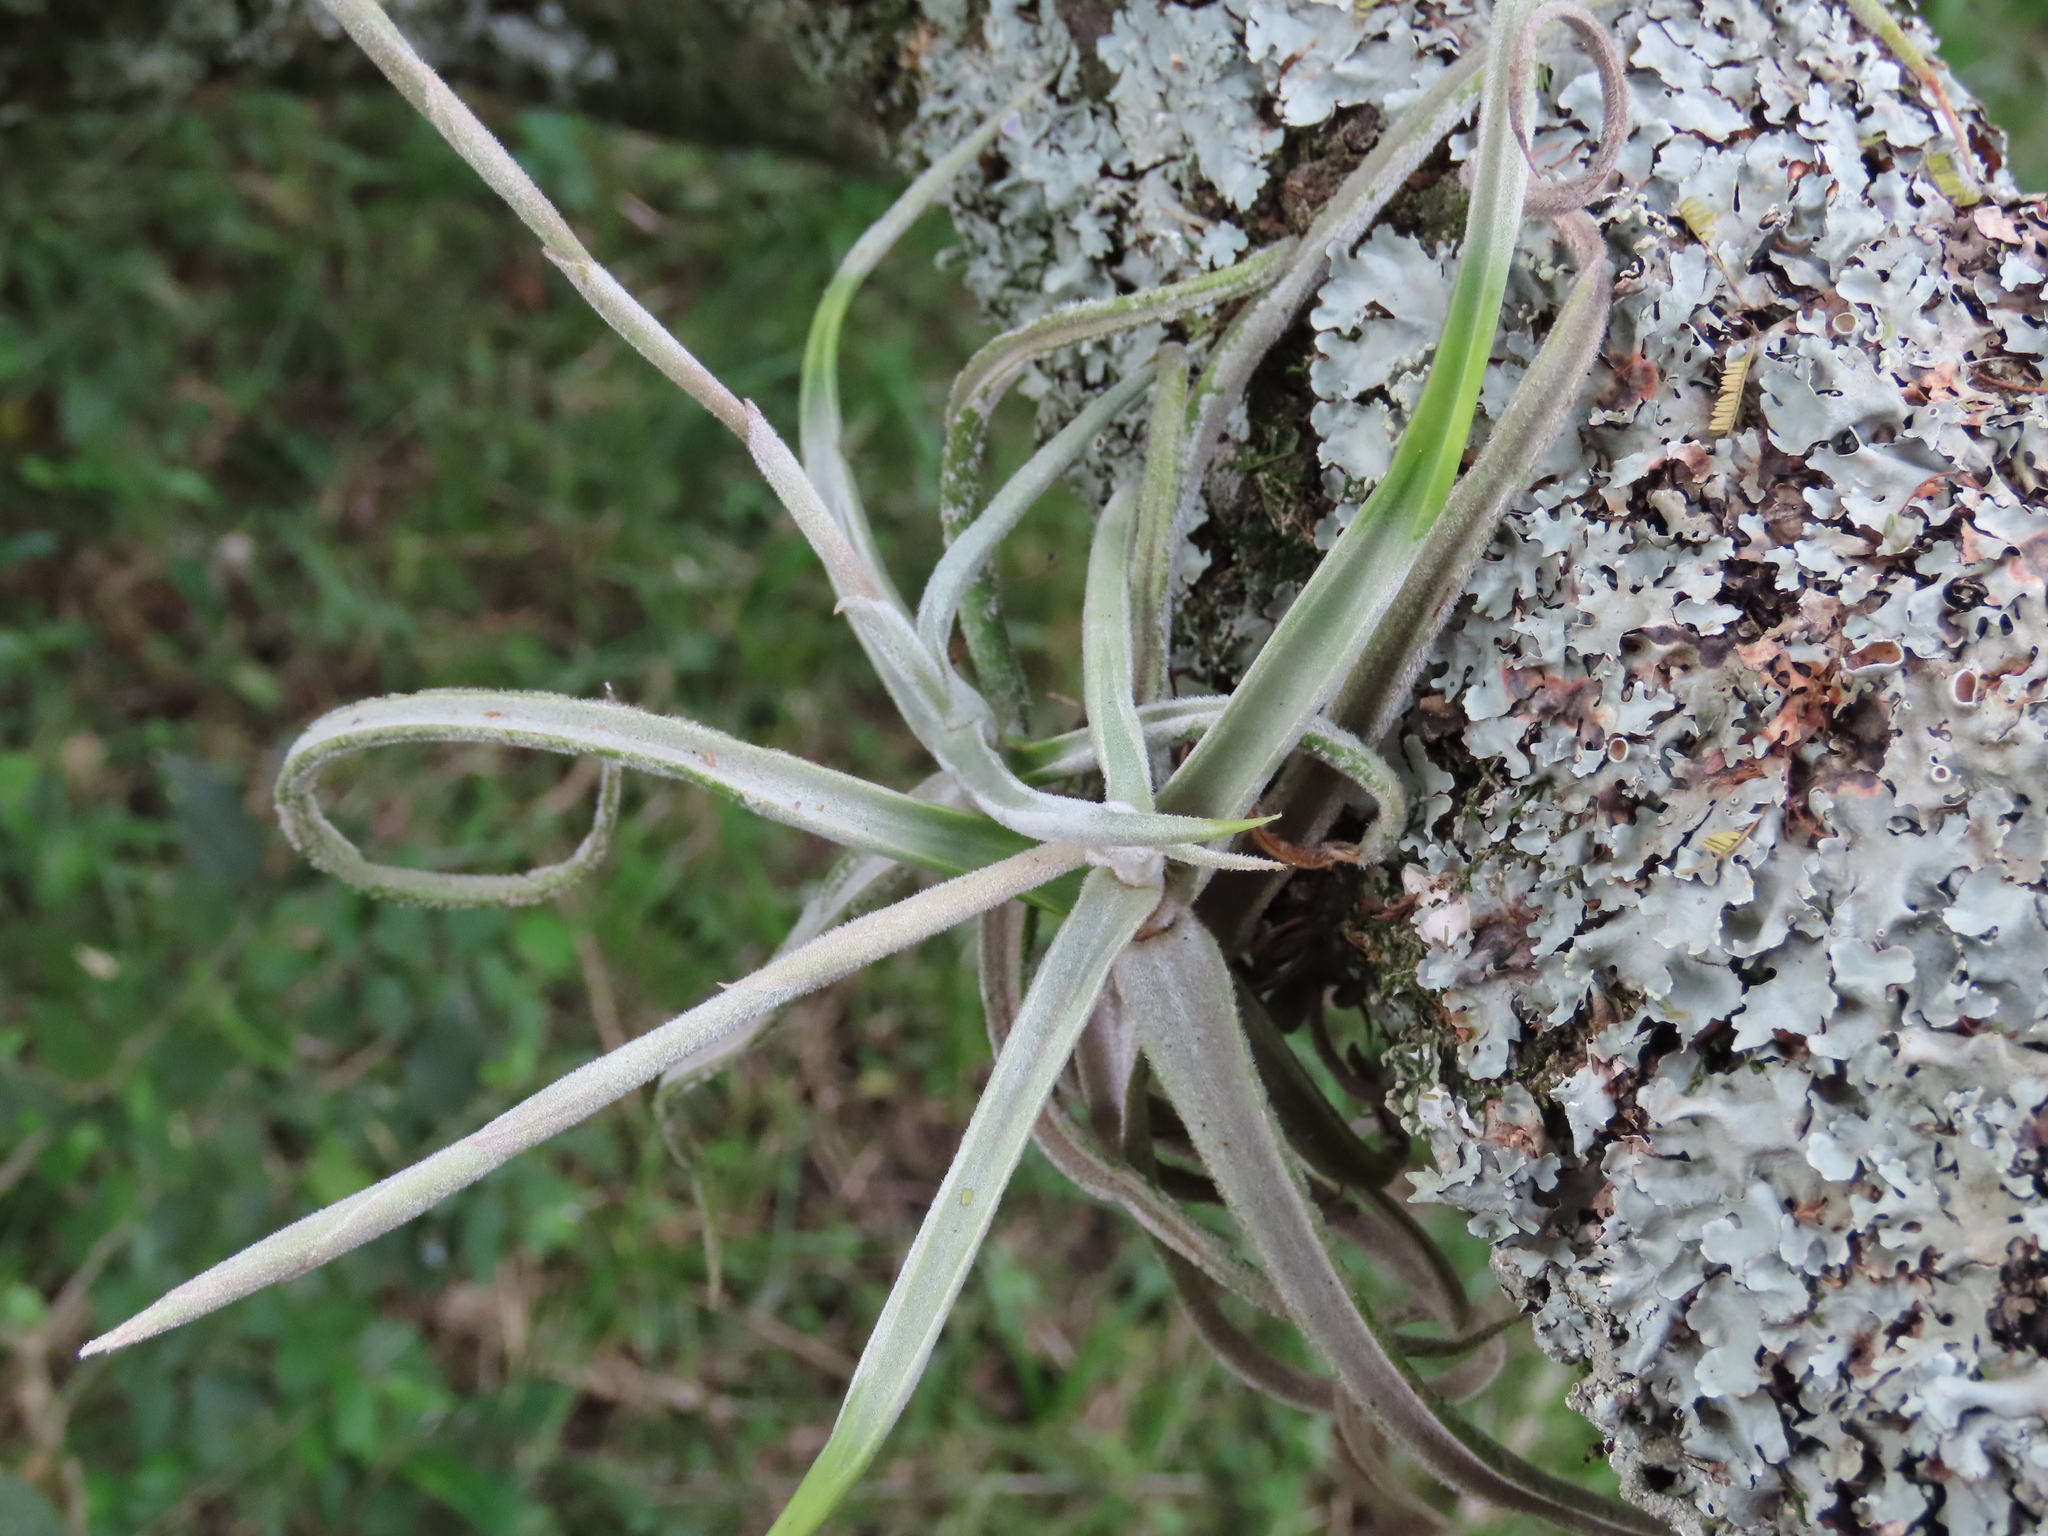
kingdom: Plantae
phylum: Tracheophyta
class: Liliopsida
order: Poales
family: Bromeliaceae
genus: Tillandsia
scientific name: Tillandsia duratii
